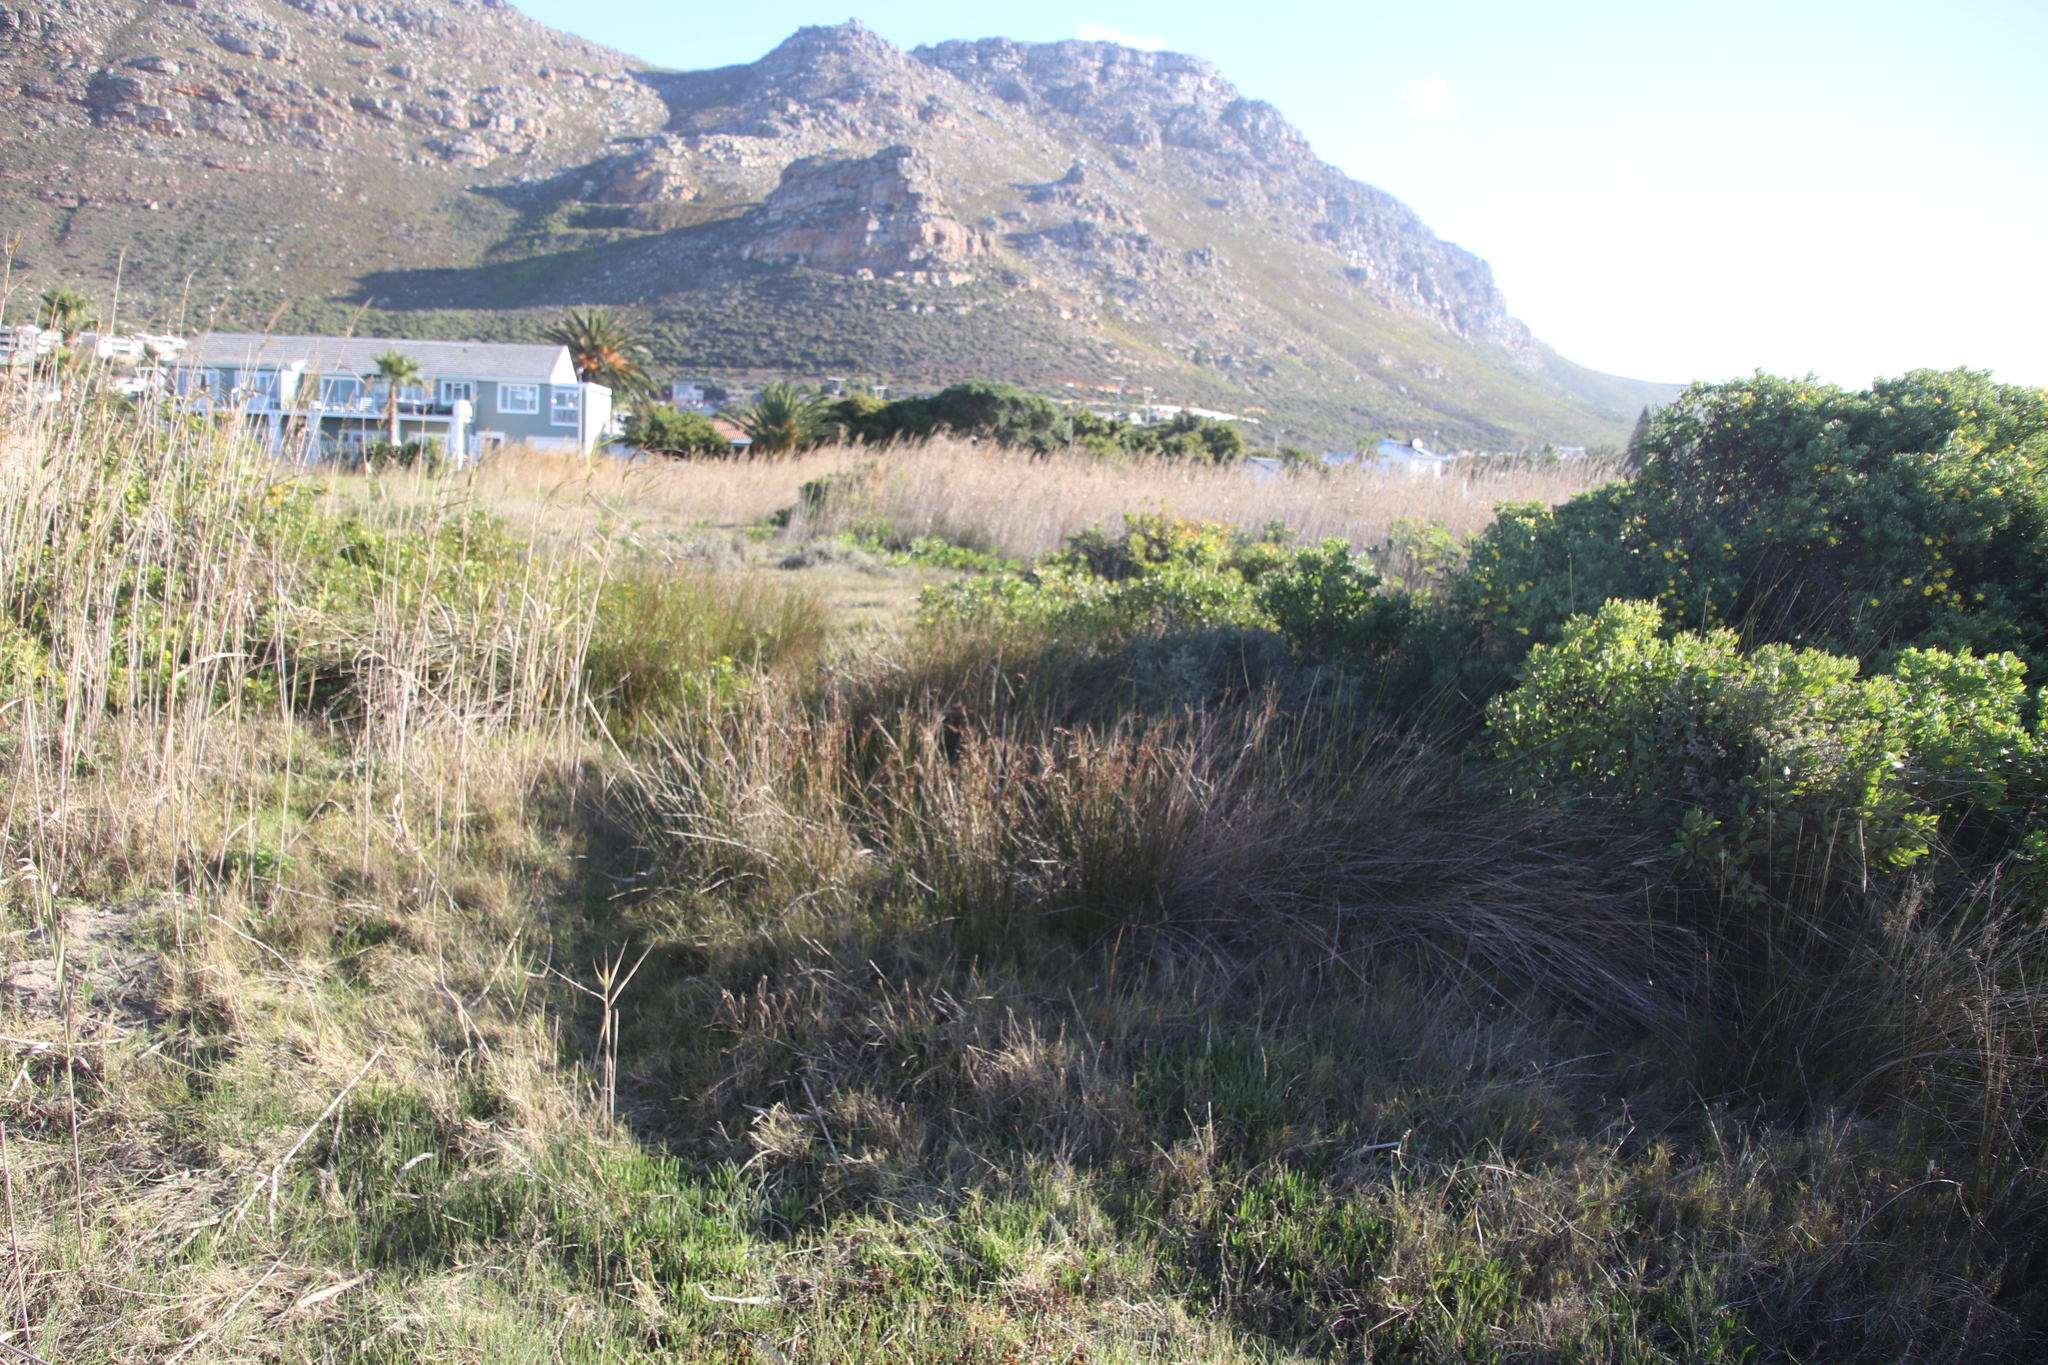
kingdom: Plantae
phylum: Tracheophyta
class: Liliopsida
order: Poales
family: Juncaceae
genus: Juncus
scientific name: Juncus acutus
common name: Sharp rush
